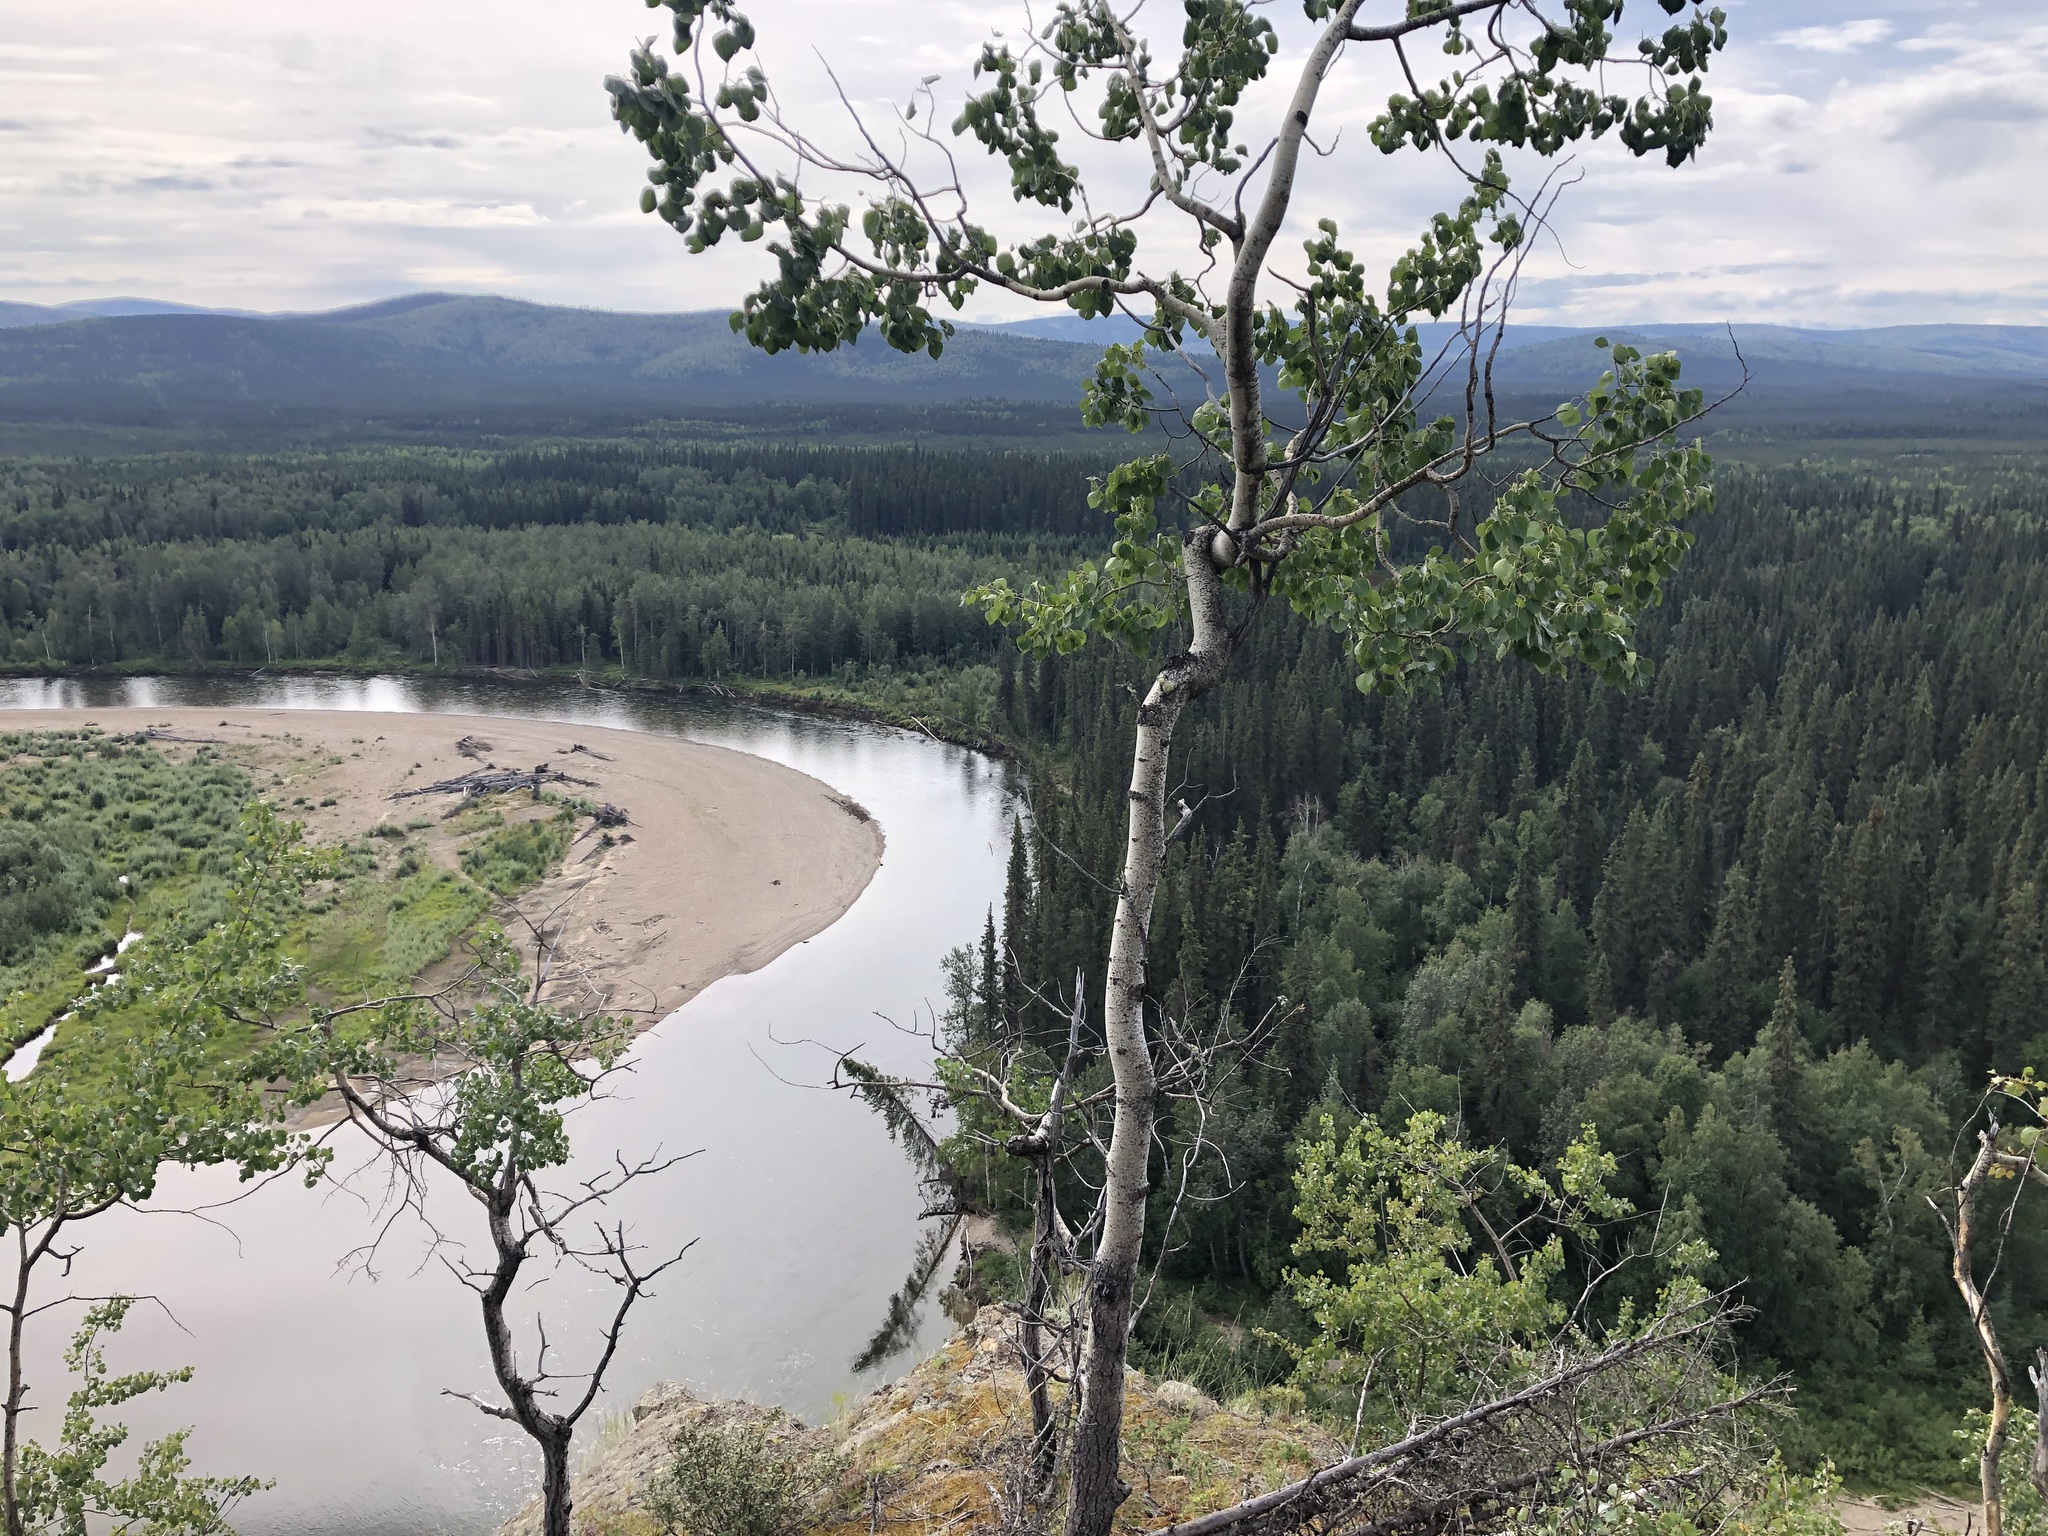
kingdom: Plantae
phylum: Tracheophyta
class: Magnoliopsida
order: Malpighiales
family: Salicaceae
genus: Populus
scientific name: Populus tremuloides
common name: Quaking aspen
